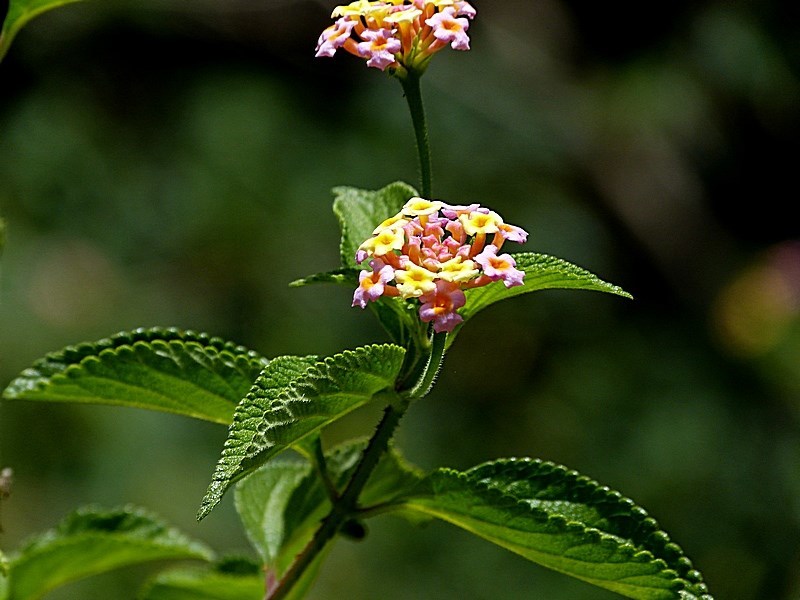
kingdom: Plantae
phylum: Tracheophyta
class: Magnoliopsida
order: Lamiales
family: Verbenaceae
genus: Lantana
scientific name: Lantana camara
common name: Lantana
